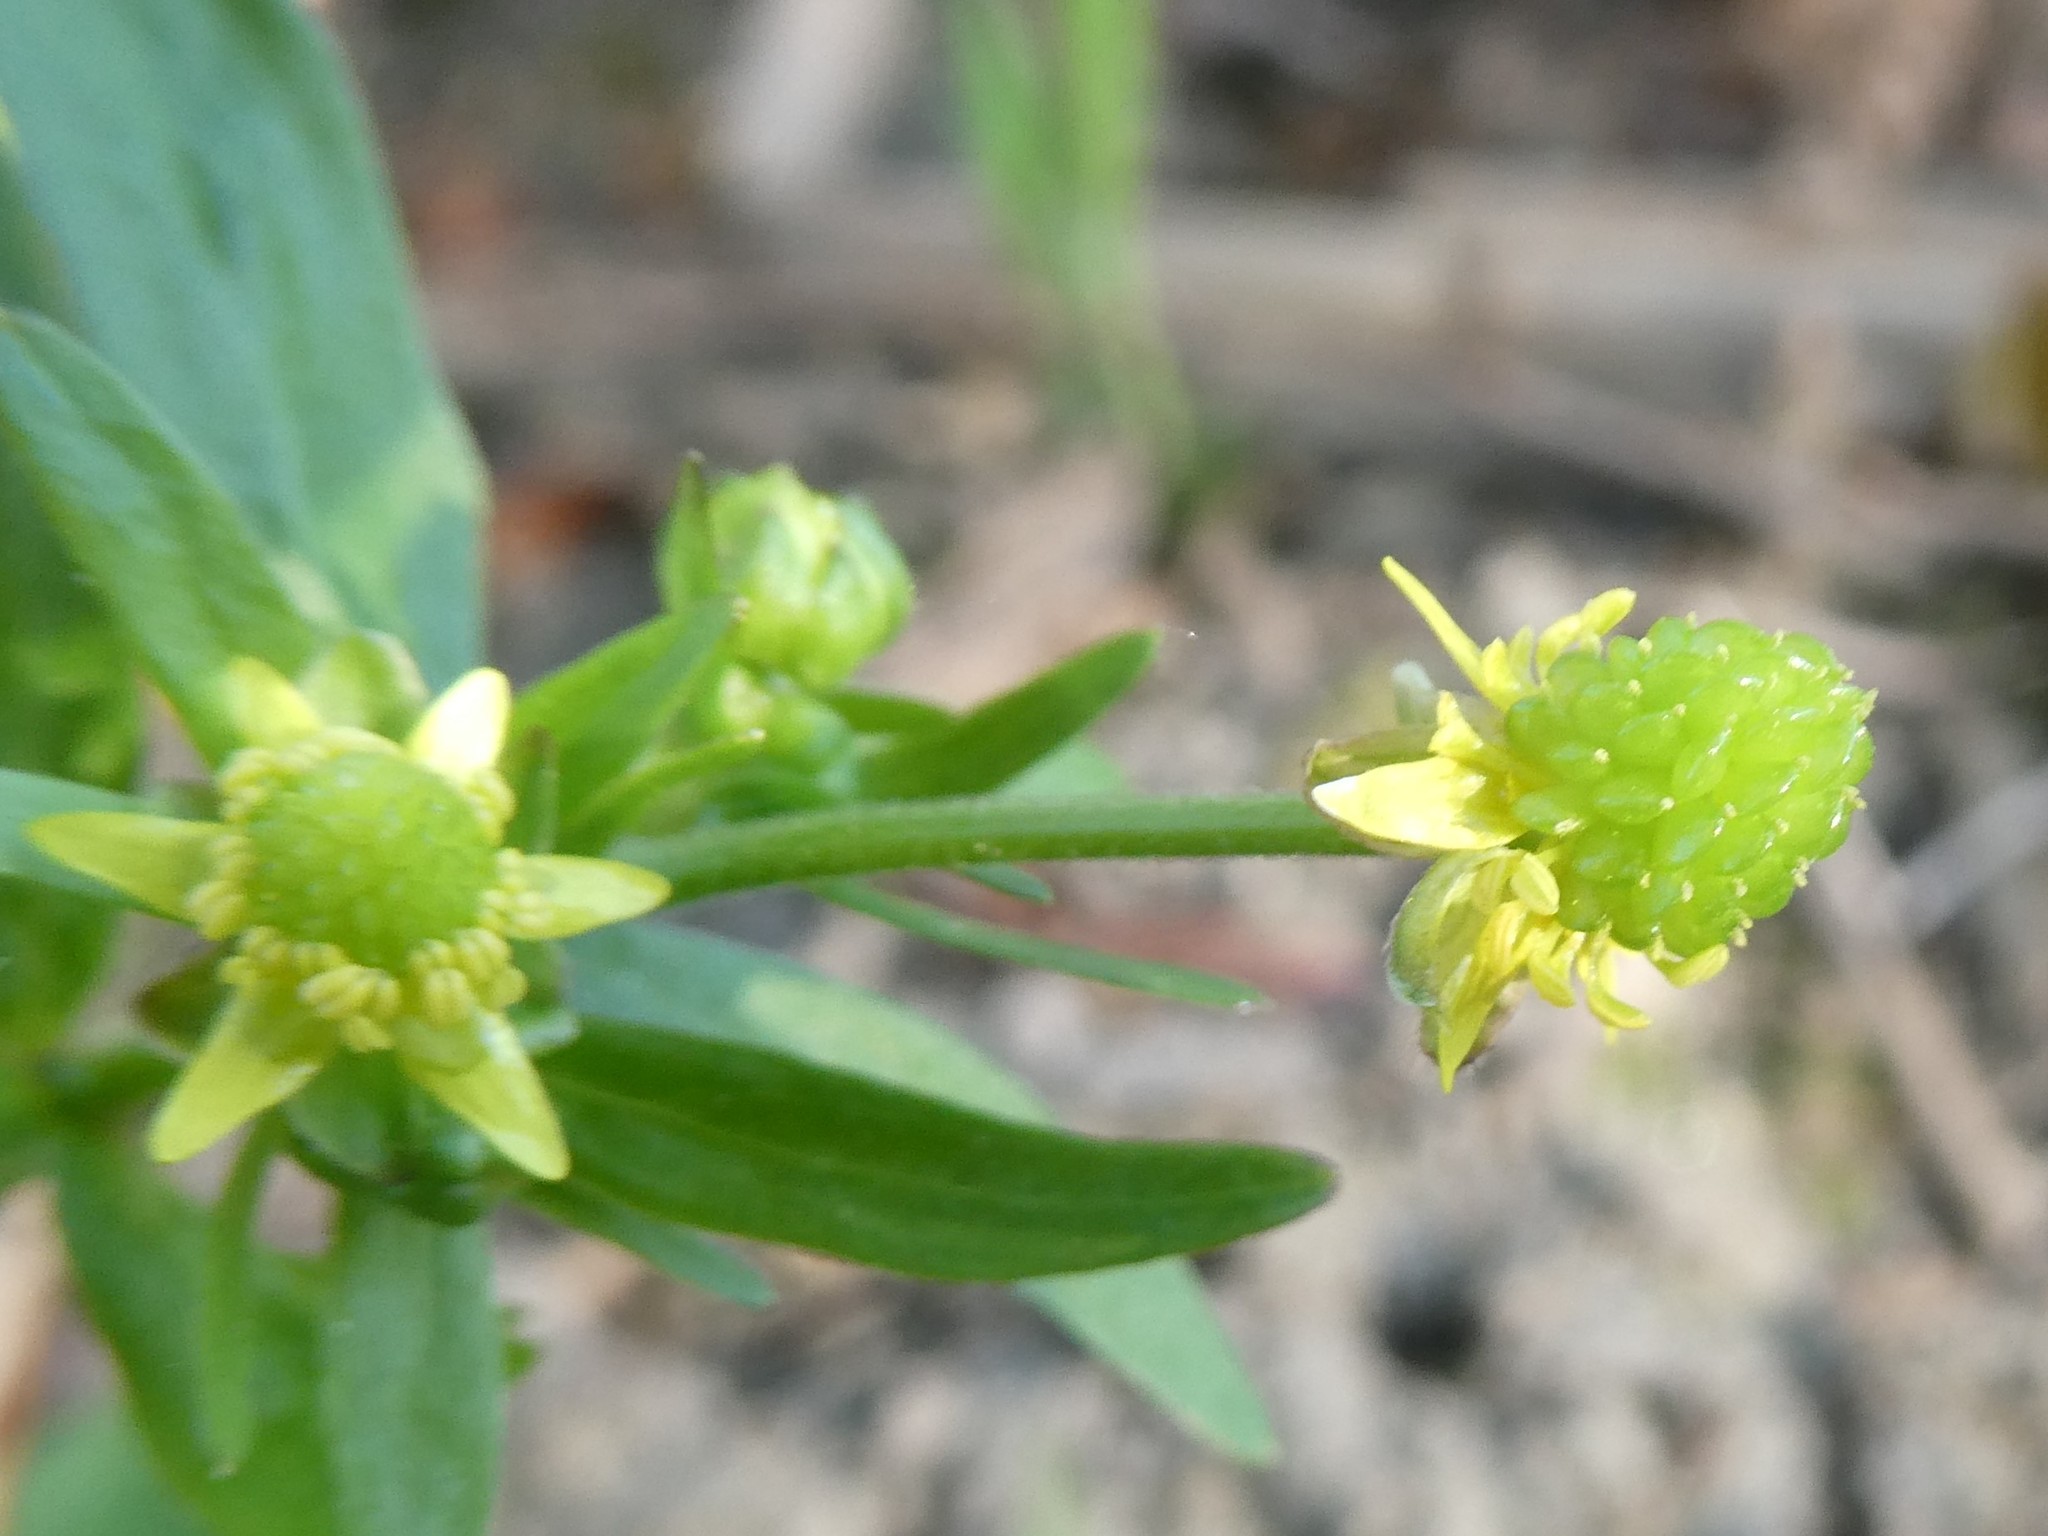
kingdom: Plantae
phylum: Tracheophyta
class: Magnoliopsida
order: Ranunculales
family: Ranunculaceae
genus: Ranunculus
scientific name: Ranunculus abortivus
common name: Early wood buttercup
